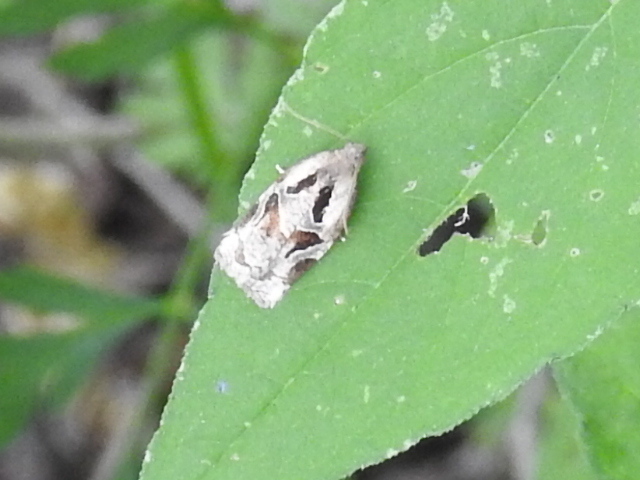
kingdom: Animalia
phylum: Arthropoda
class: Insecta
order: Lepidoptera
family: Tortricidae
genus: Archips
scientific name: Archips grisea
